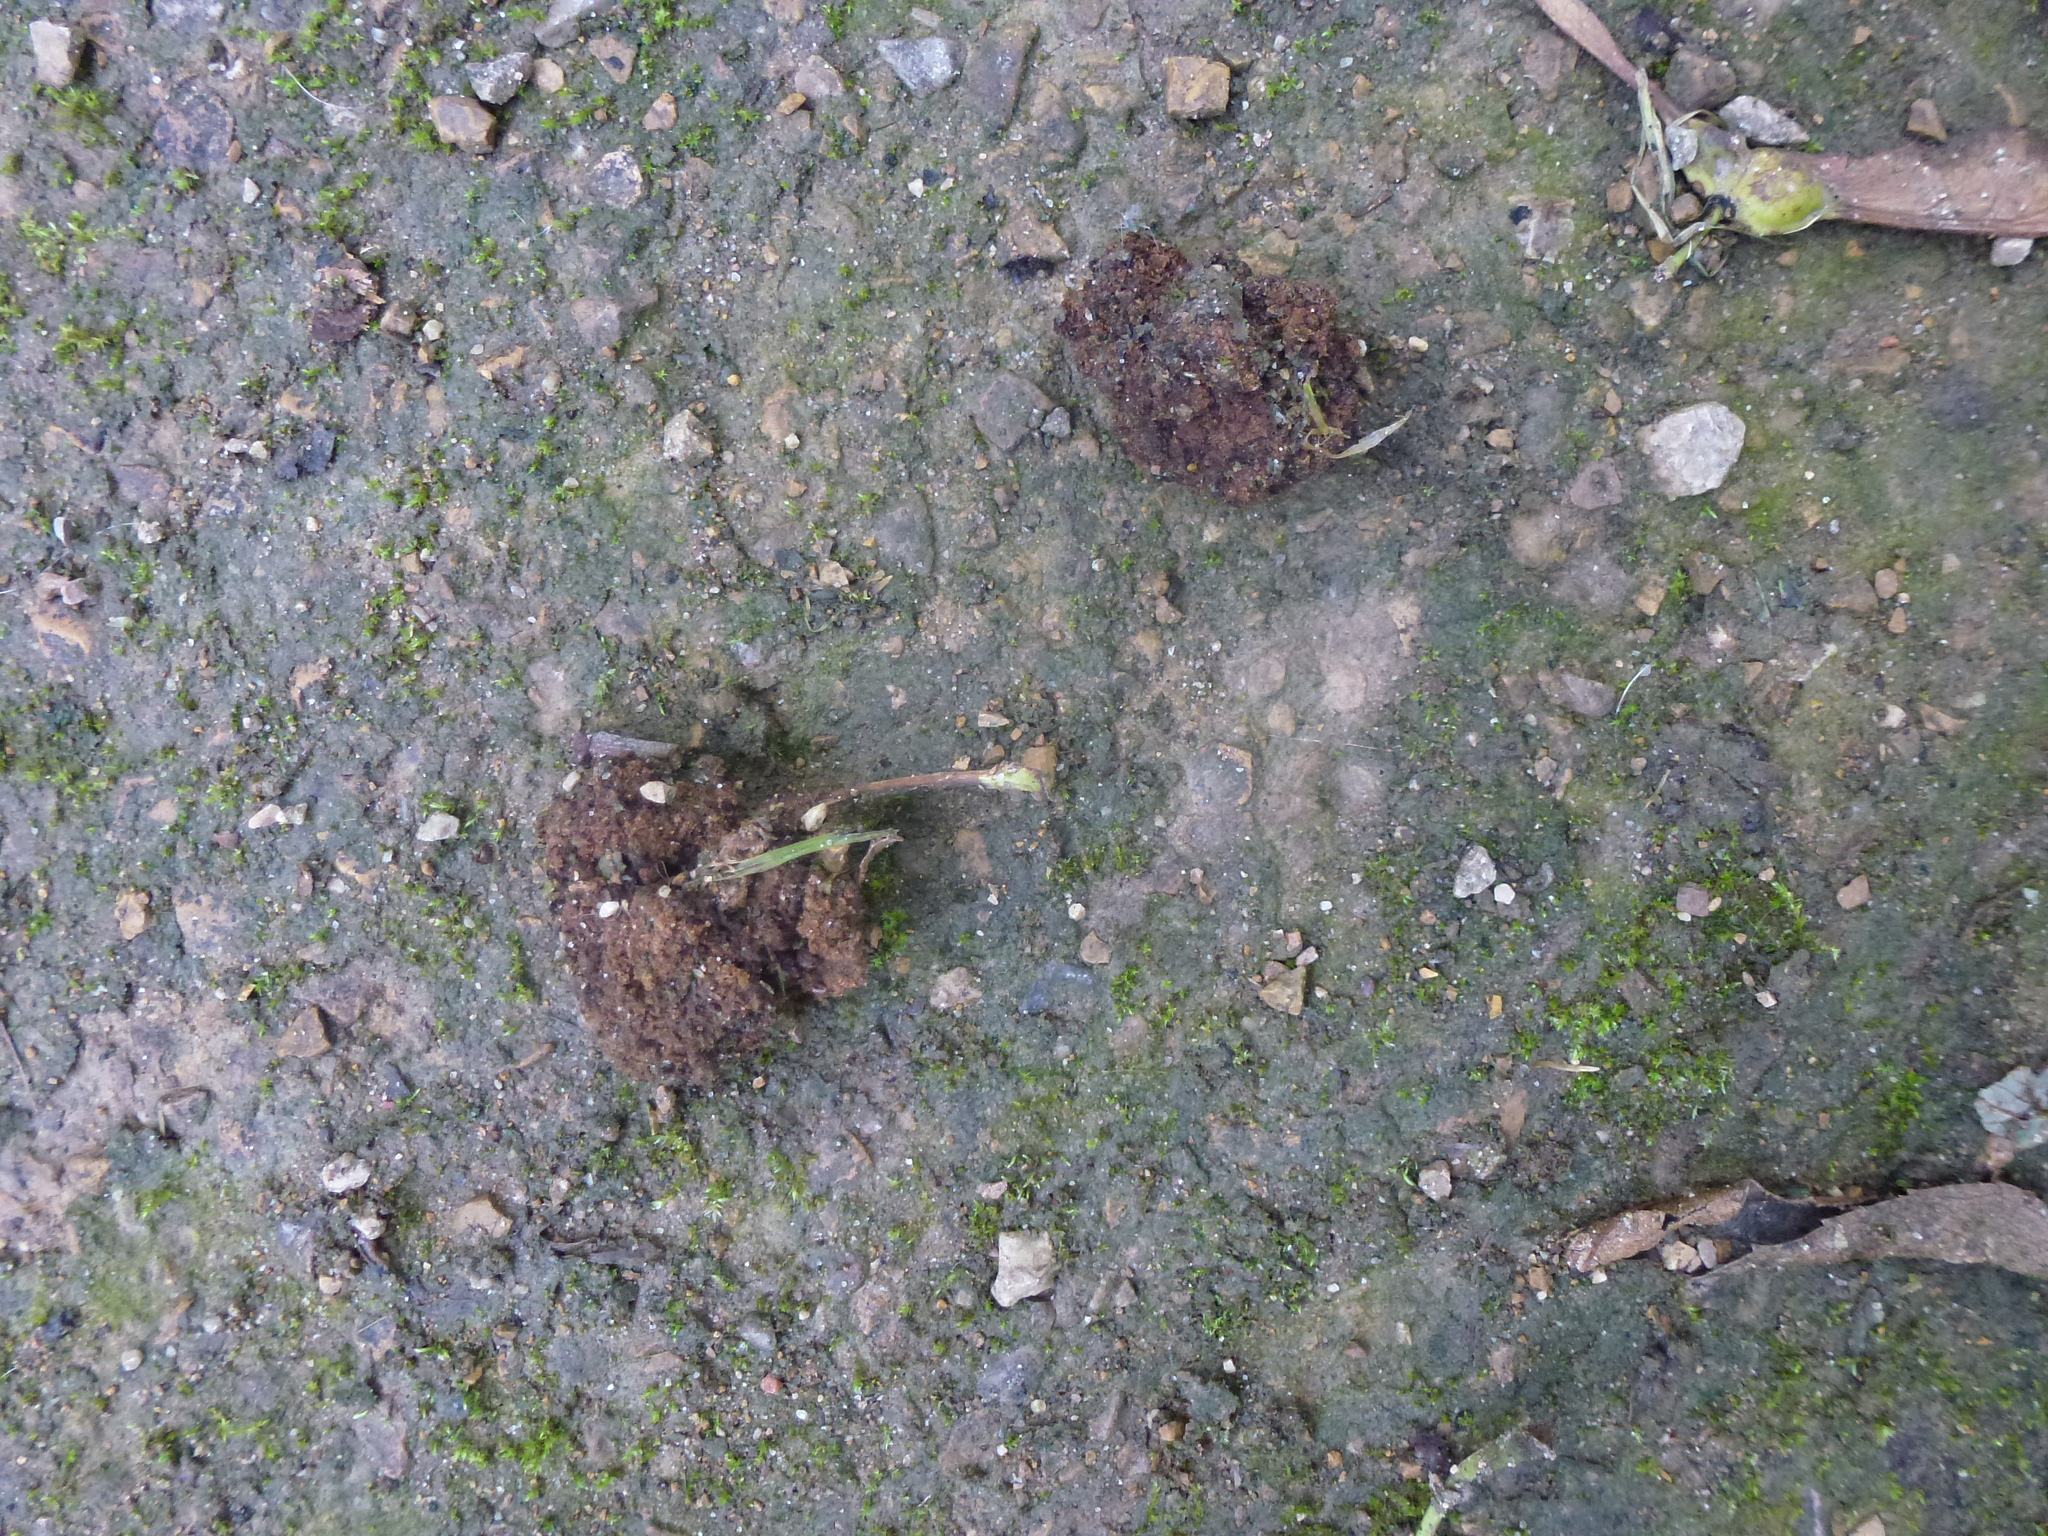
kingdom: Animalia
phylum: Arthropoda
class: Arachnida
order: Trombidiformes
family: Eriophyidae
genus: Aceria
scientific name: Aceria fraxinivora
